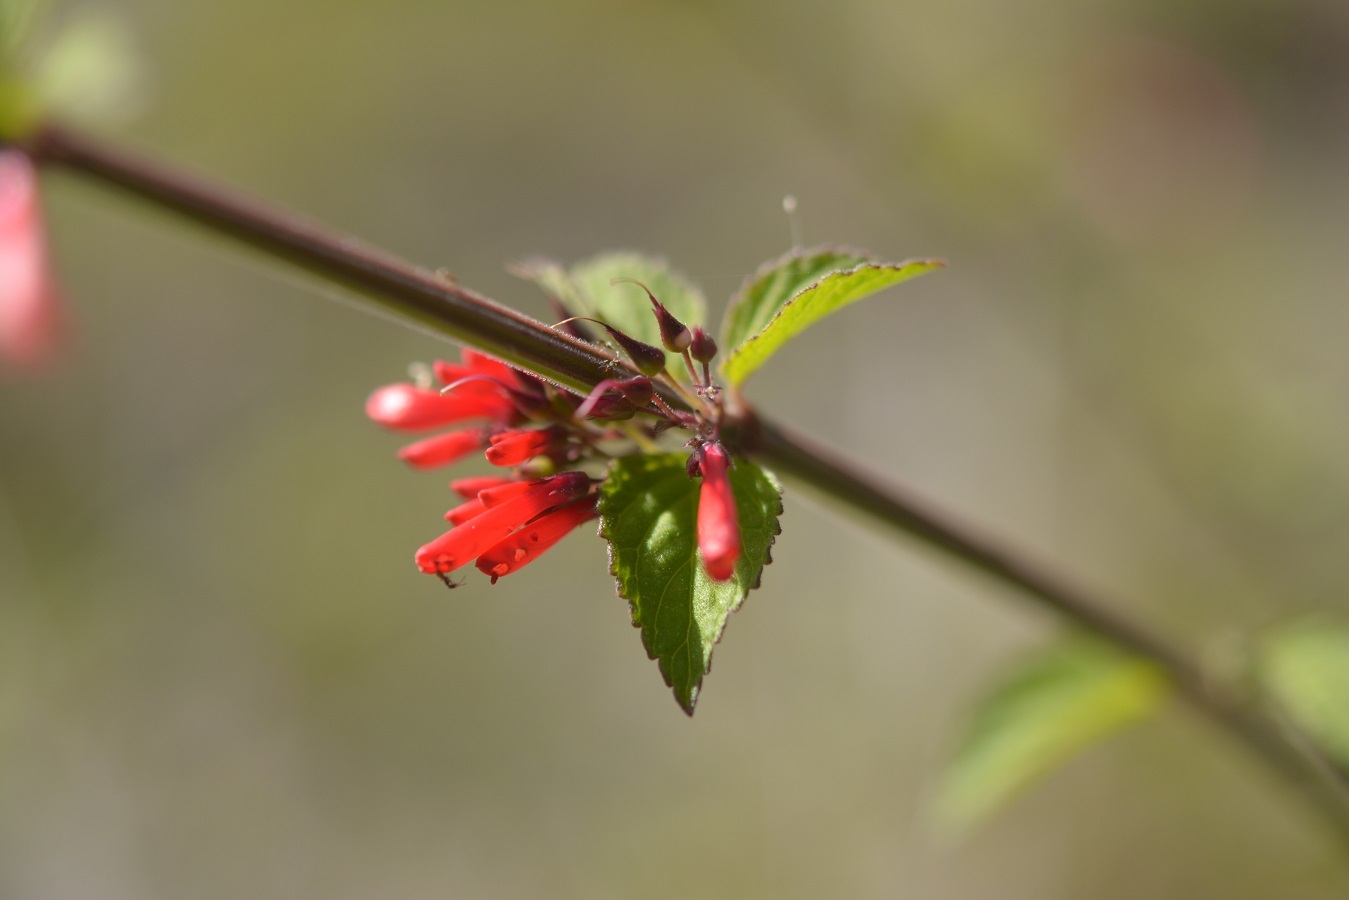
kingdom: Plantae
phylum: Tracheophyta
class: Magnoliopsida
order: Lamiales
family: Plantaginaceae
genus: Russelia
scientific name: Russelia verticillata
